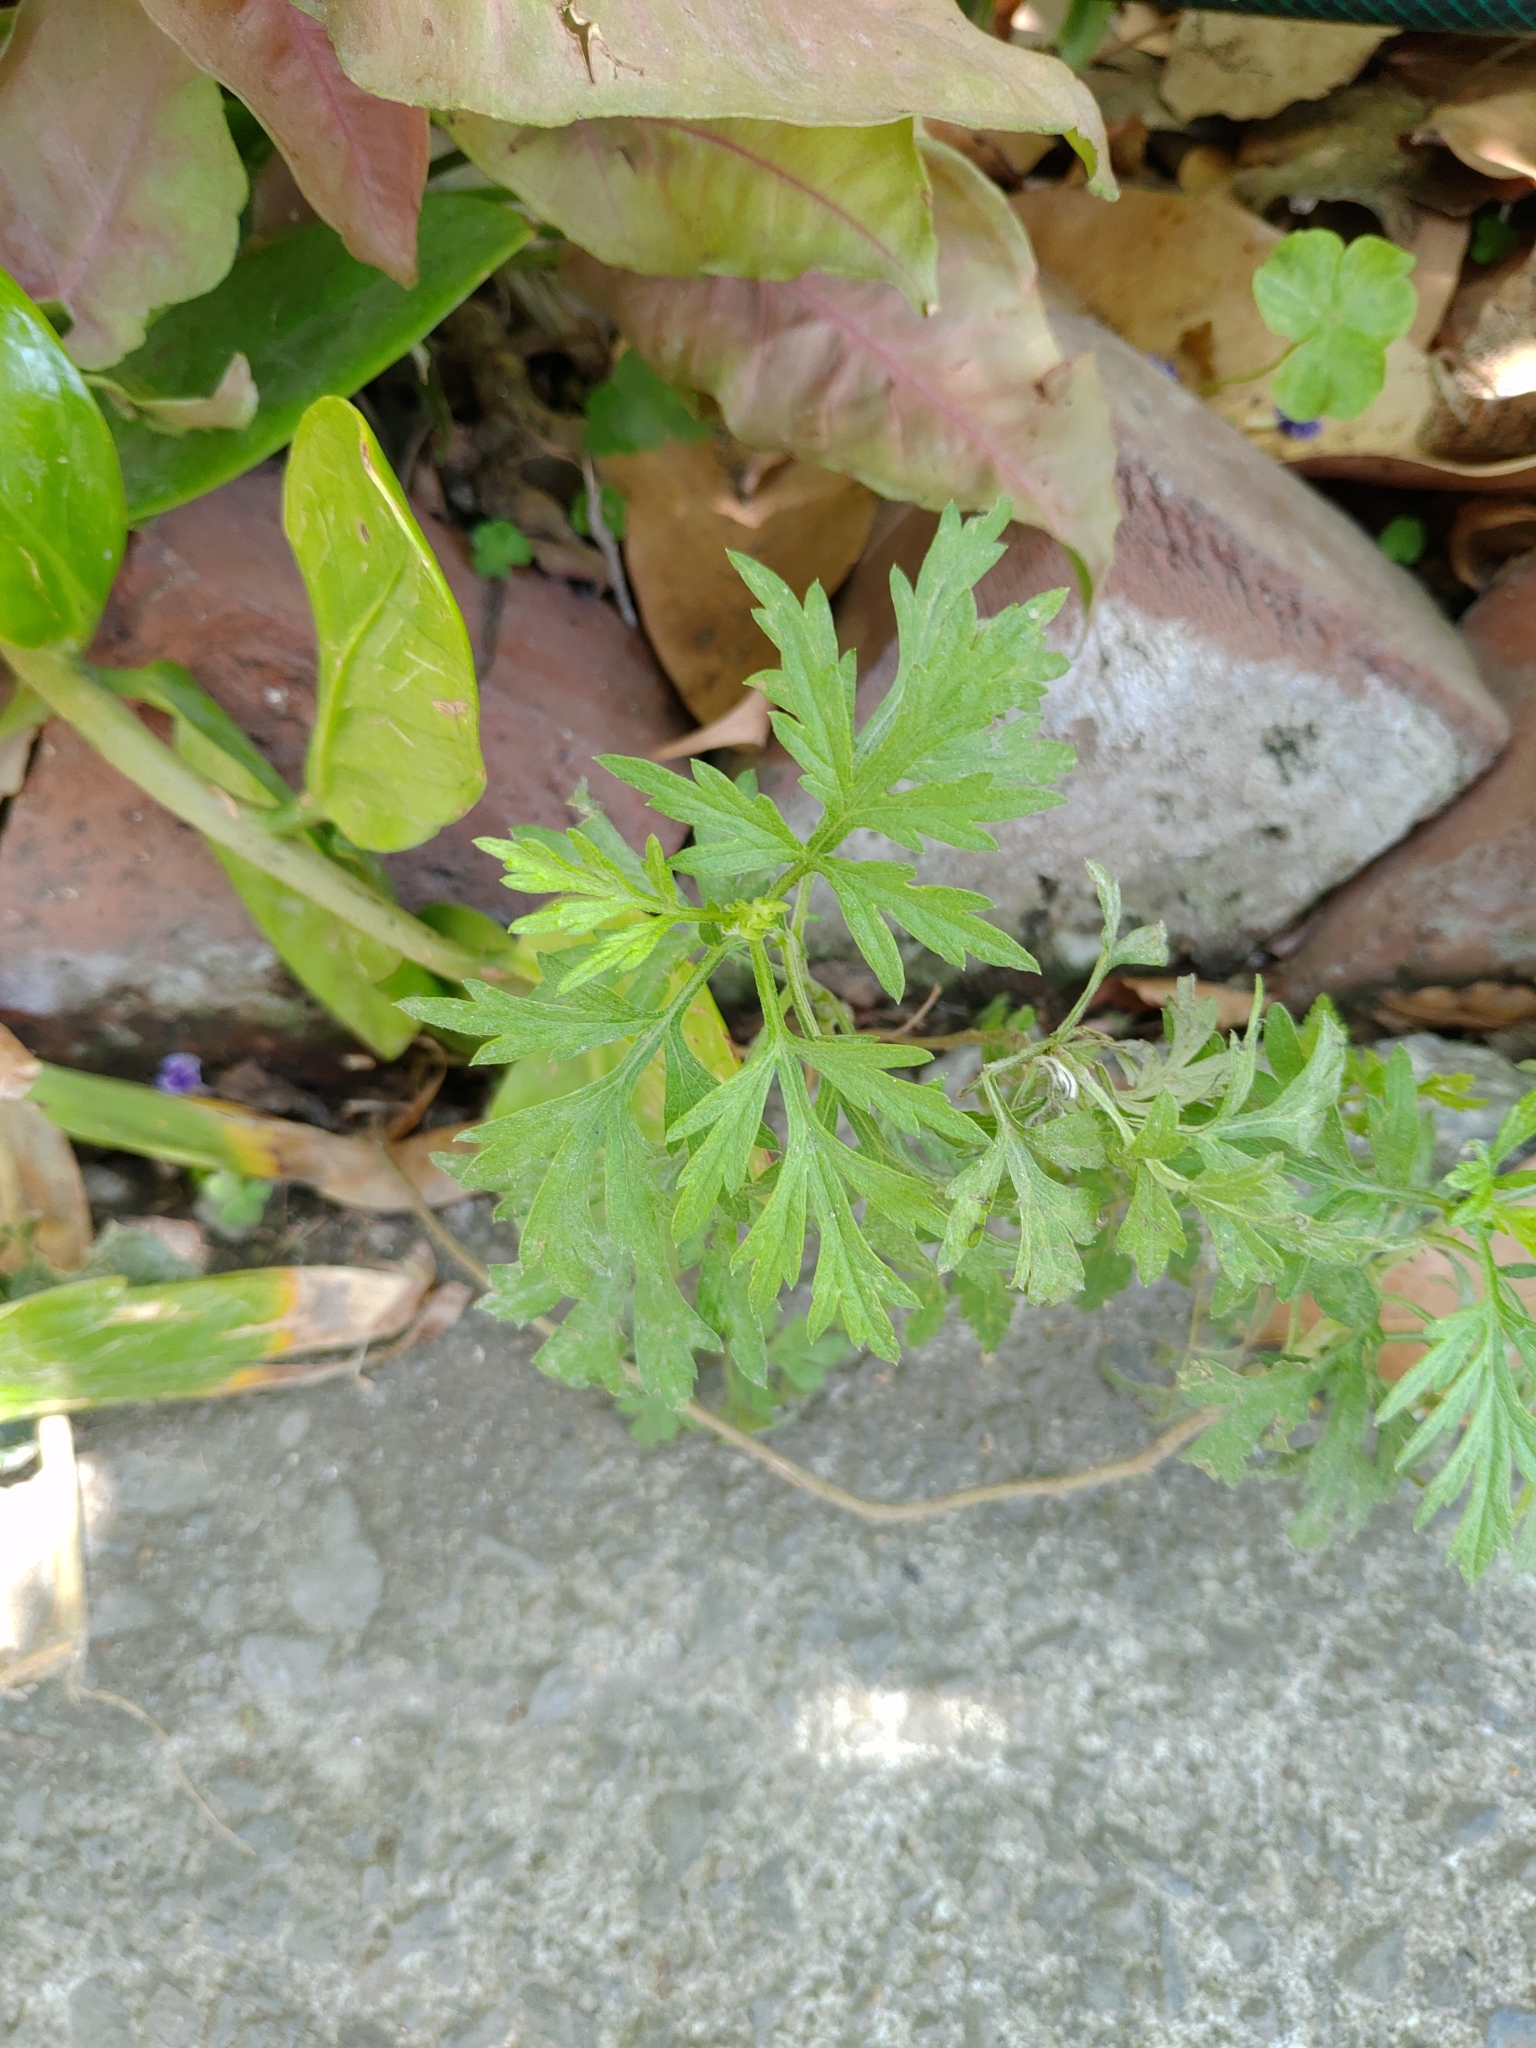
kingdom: Plantae
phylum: Tracheophyta
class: Magnoliopsida
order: Asterales
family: Asteraceae
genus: Artemisia
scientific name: Artemisia indica
